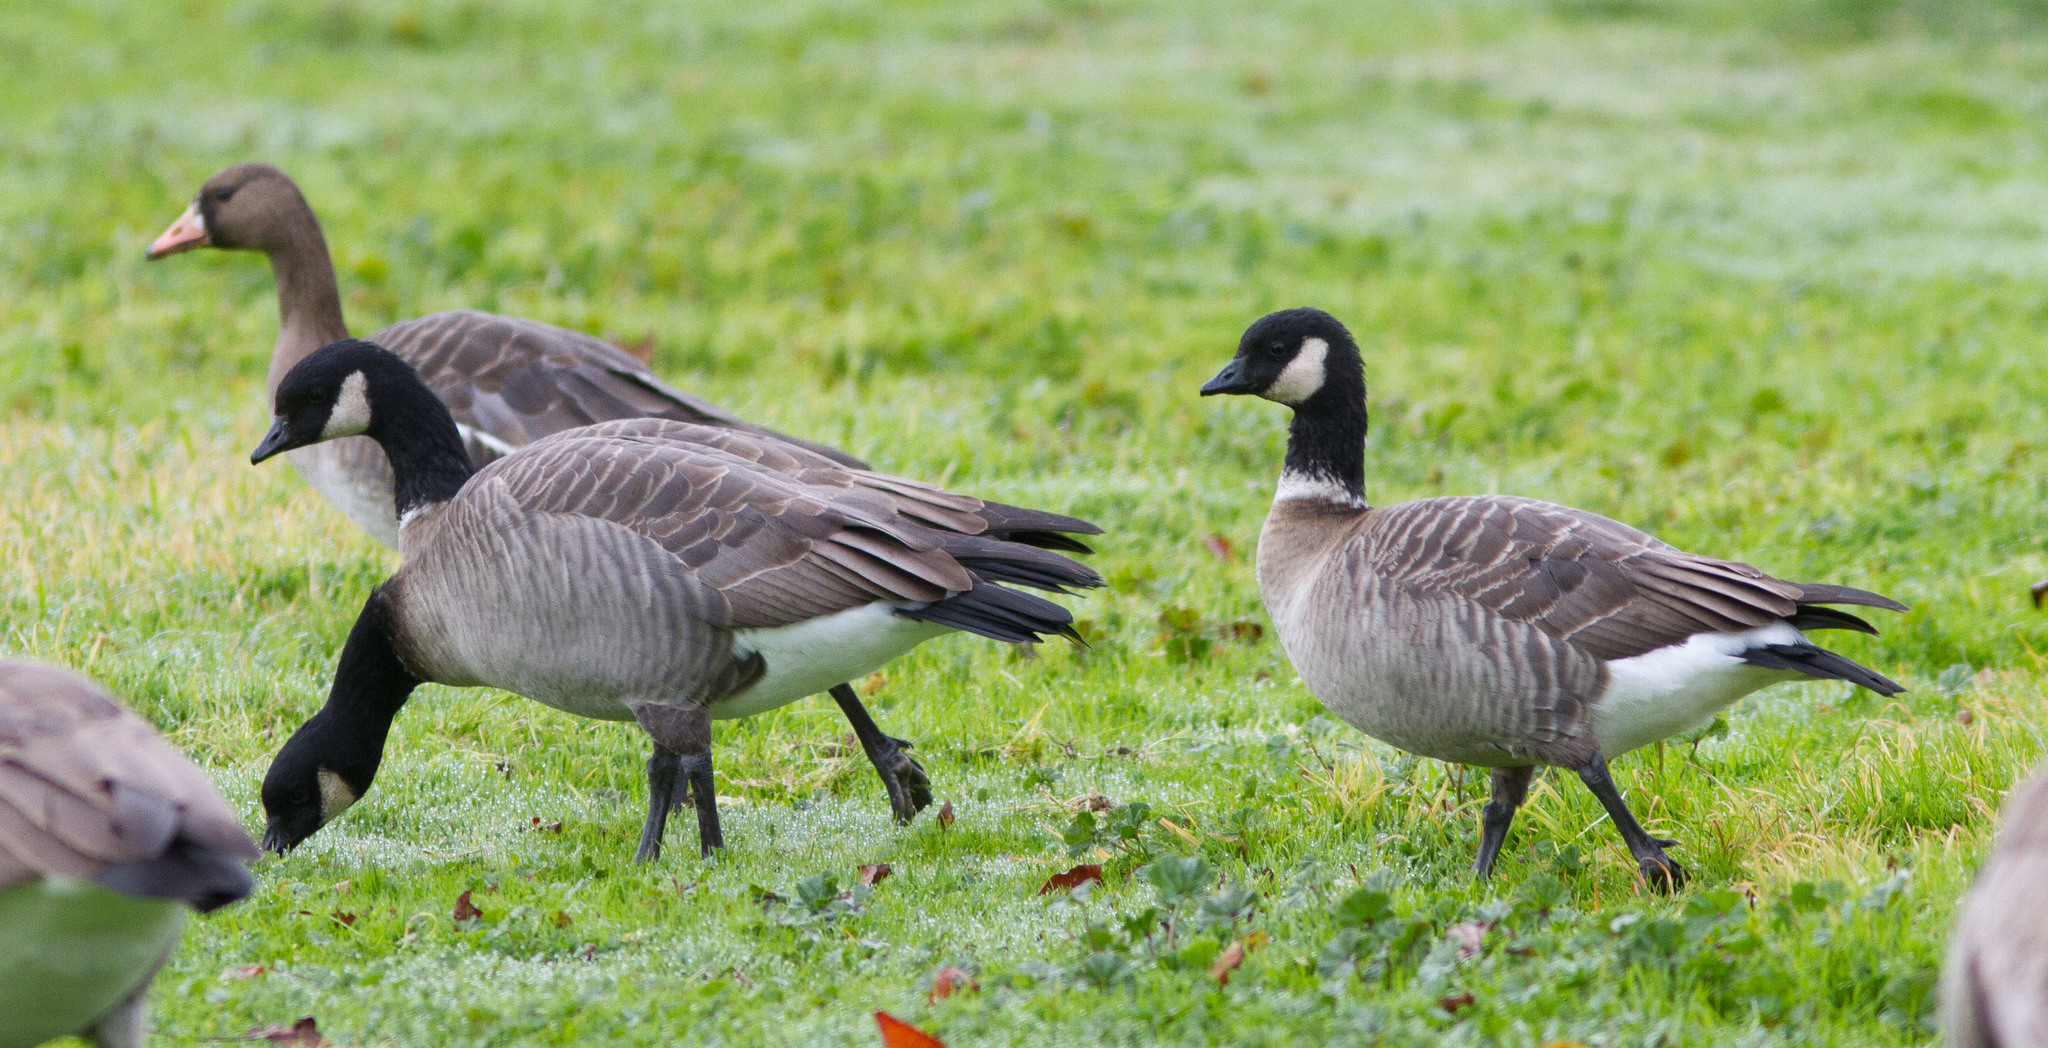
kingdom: Animalia
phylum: Chordata
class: Aves
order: Anseriformes
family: Anatidae
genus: Branta
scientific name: Branta hutchinsii
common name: Cackling goose
